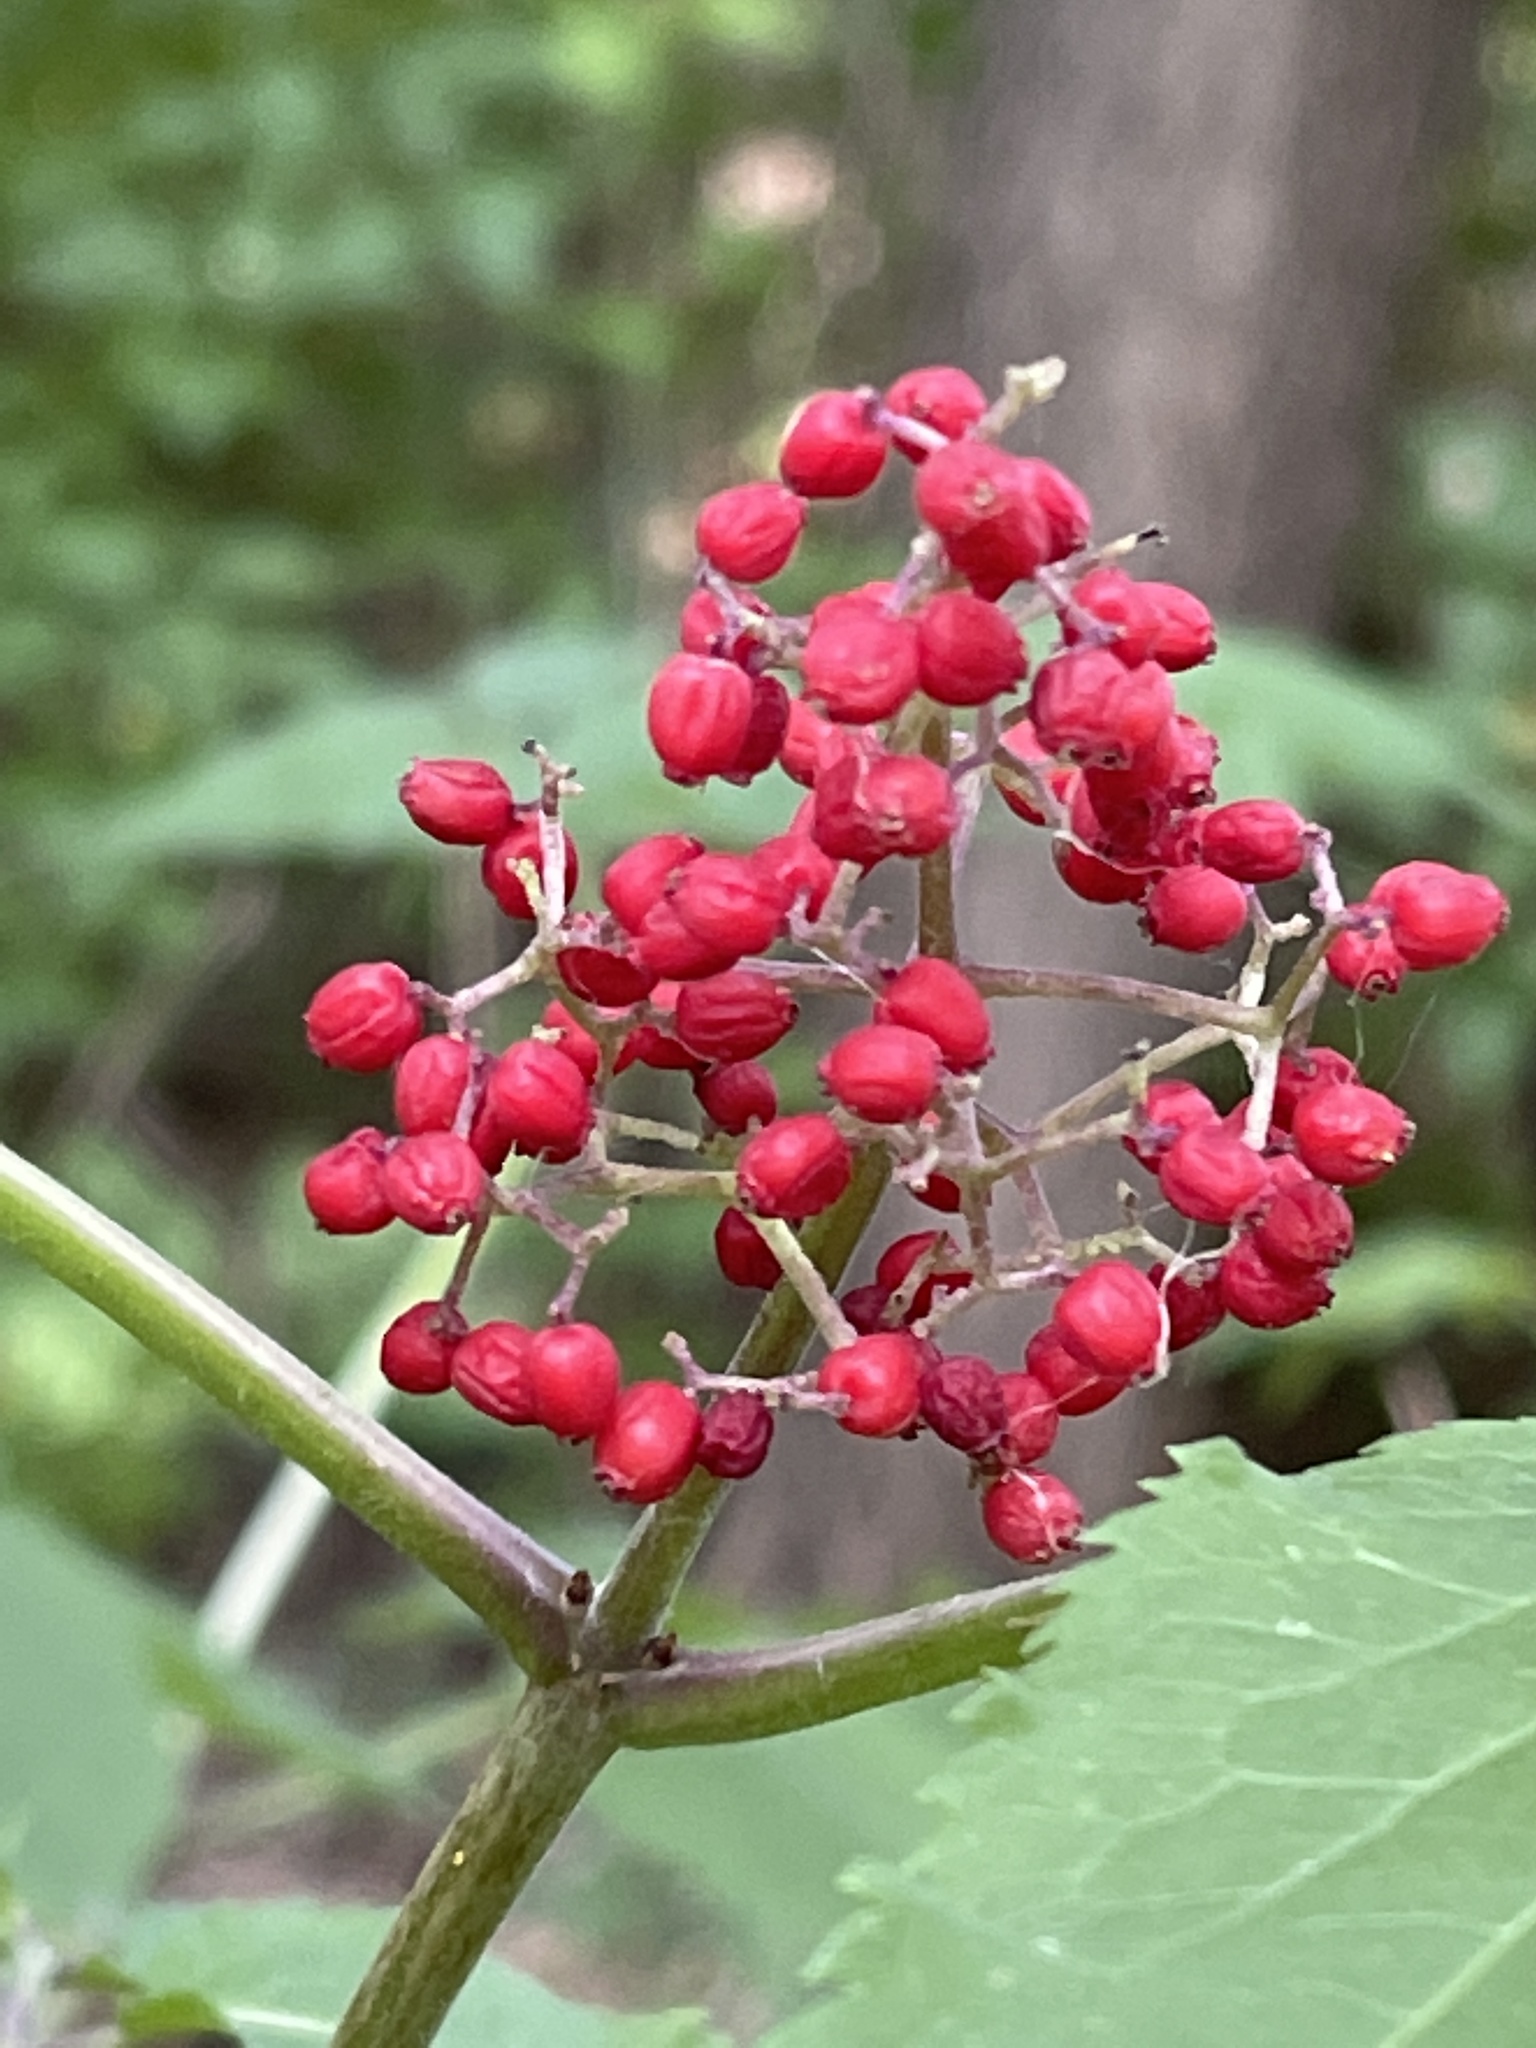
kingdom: Plantae
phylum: Tracheophyta
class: Magnoliopsida
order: Dipsacales
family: Viburnaceae
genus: Sambucus
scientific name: Sambucus racemosa
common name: Red-berried elder
